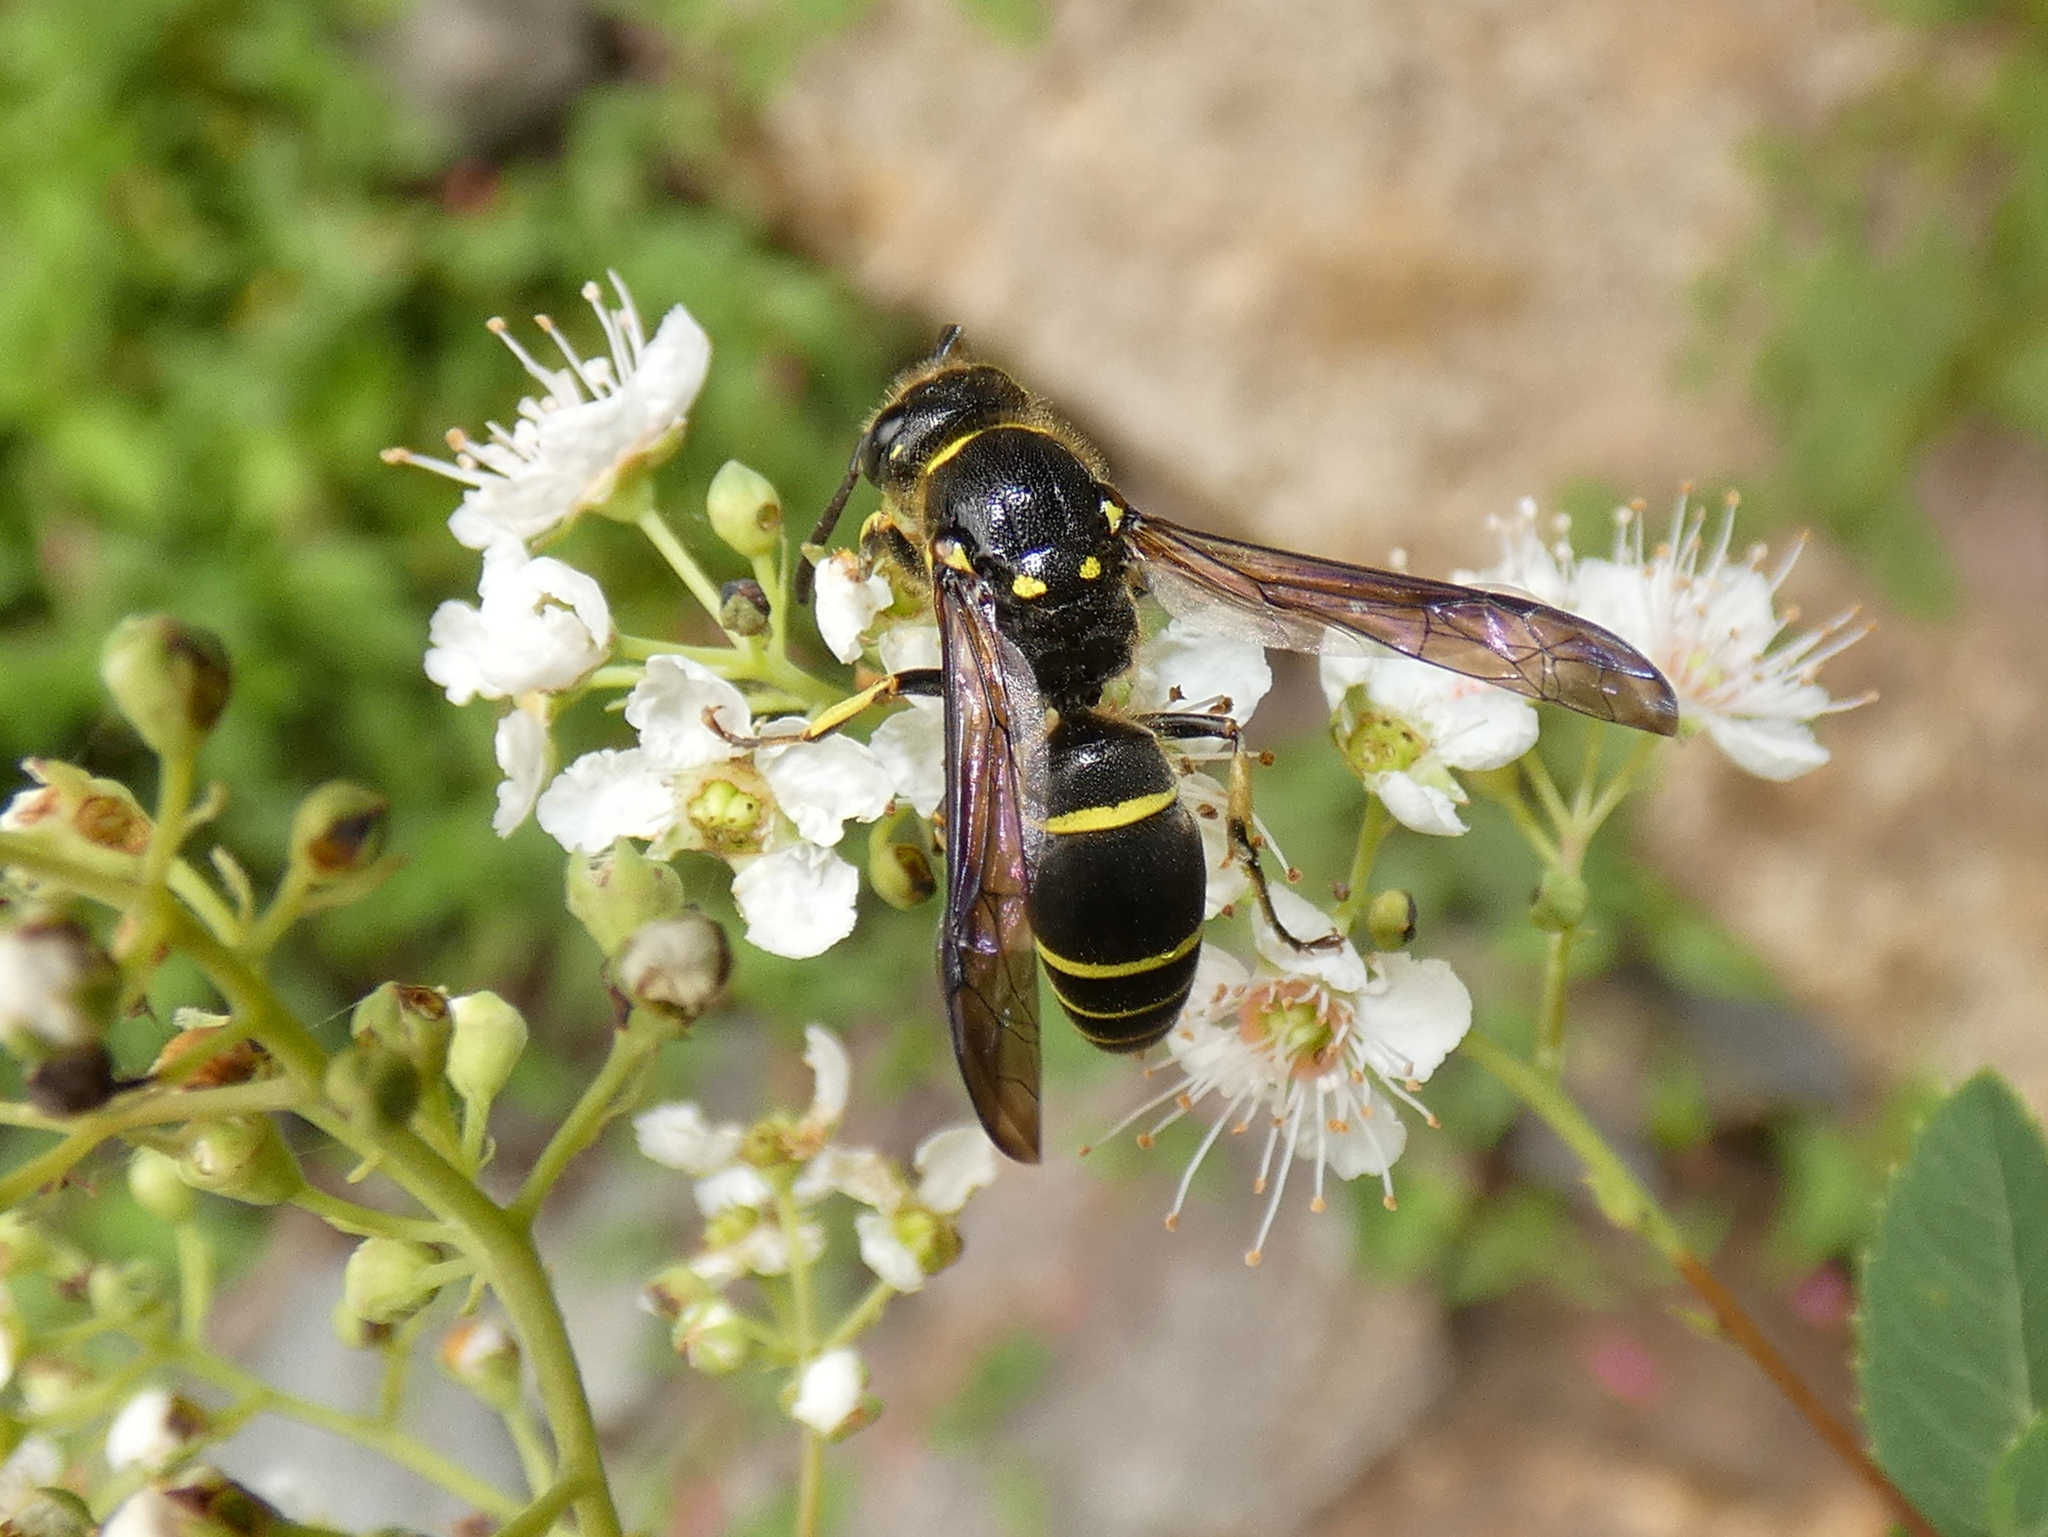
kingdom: Animalia
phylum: Arthropoda
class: Insecta
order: Hymenoptera
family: Vespidae
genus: Ancistrocerus
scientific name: Ancistrocerus
